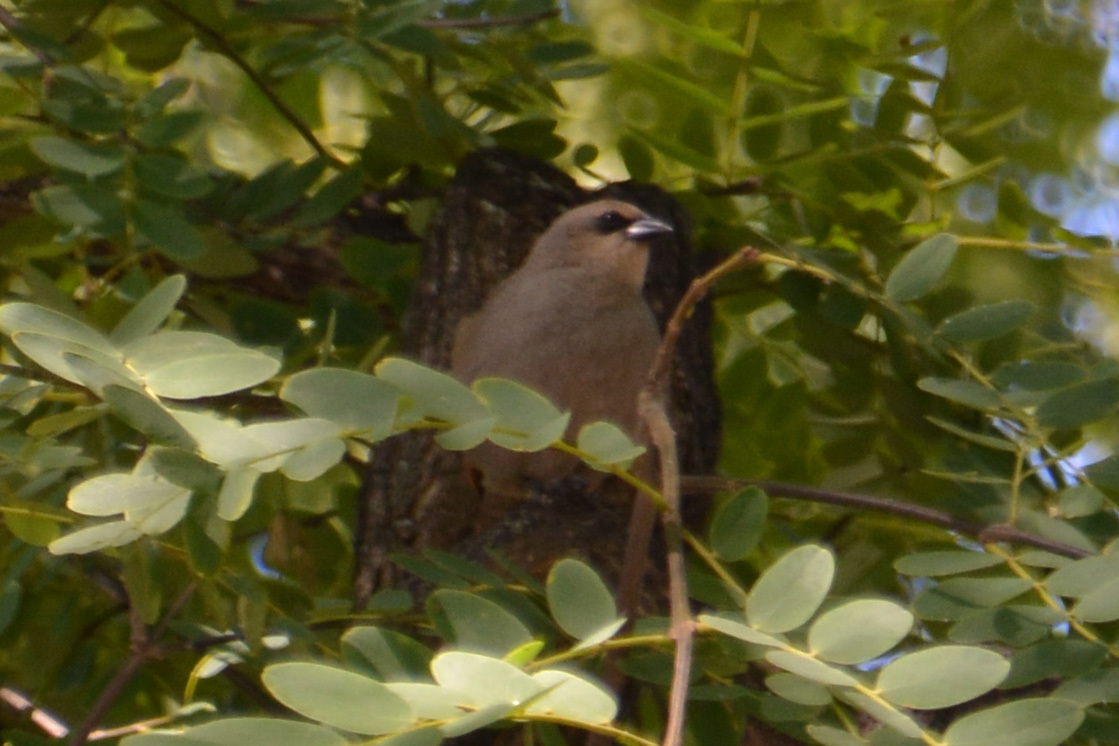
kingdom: Animalia
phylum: Chordata
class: Aves
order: Passeriformes
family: Icteridae
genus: Agelaioides
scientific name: Agelaioides badius
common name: Baywing
